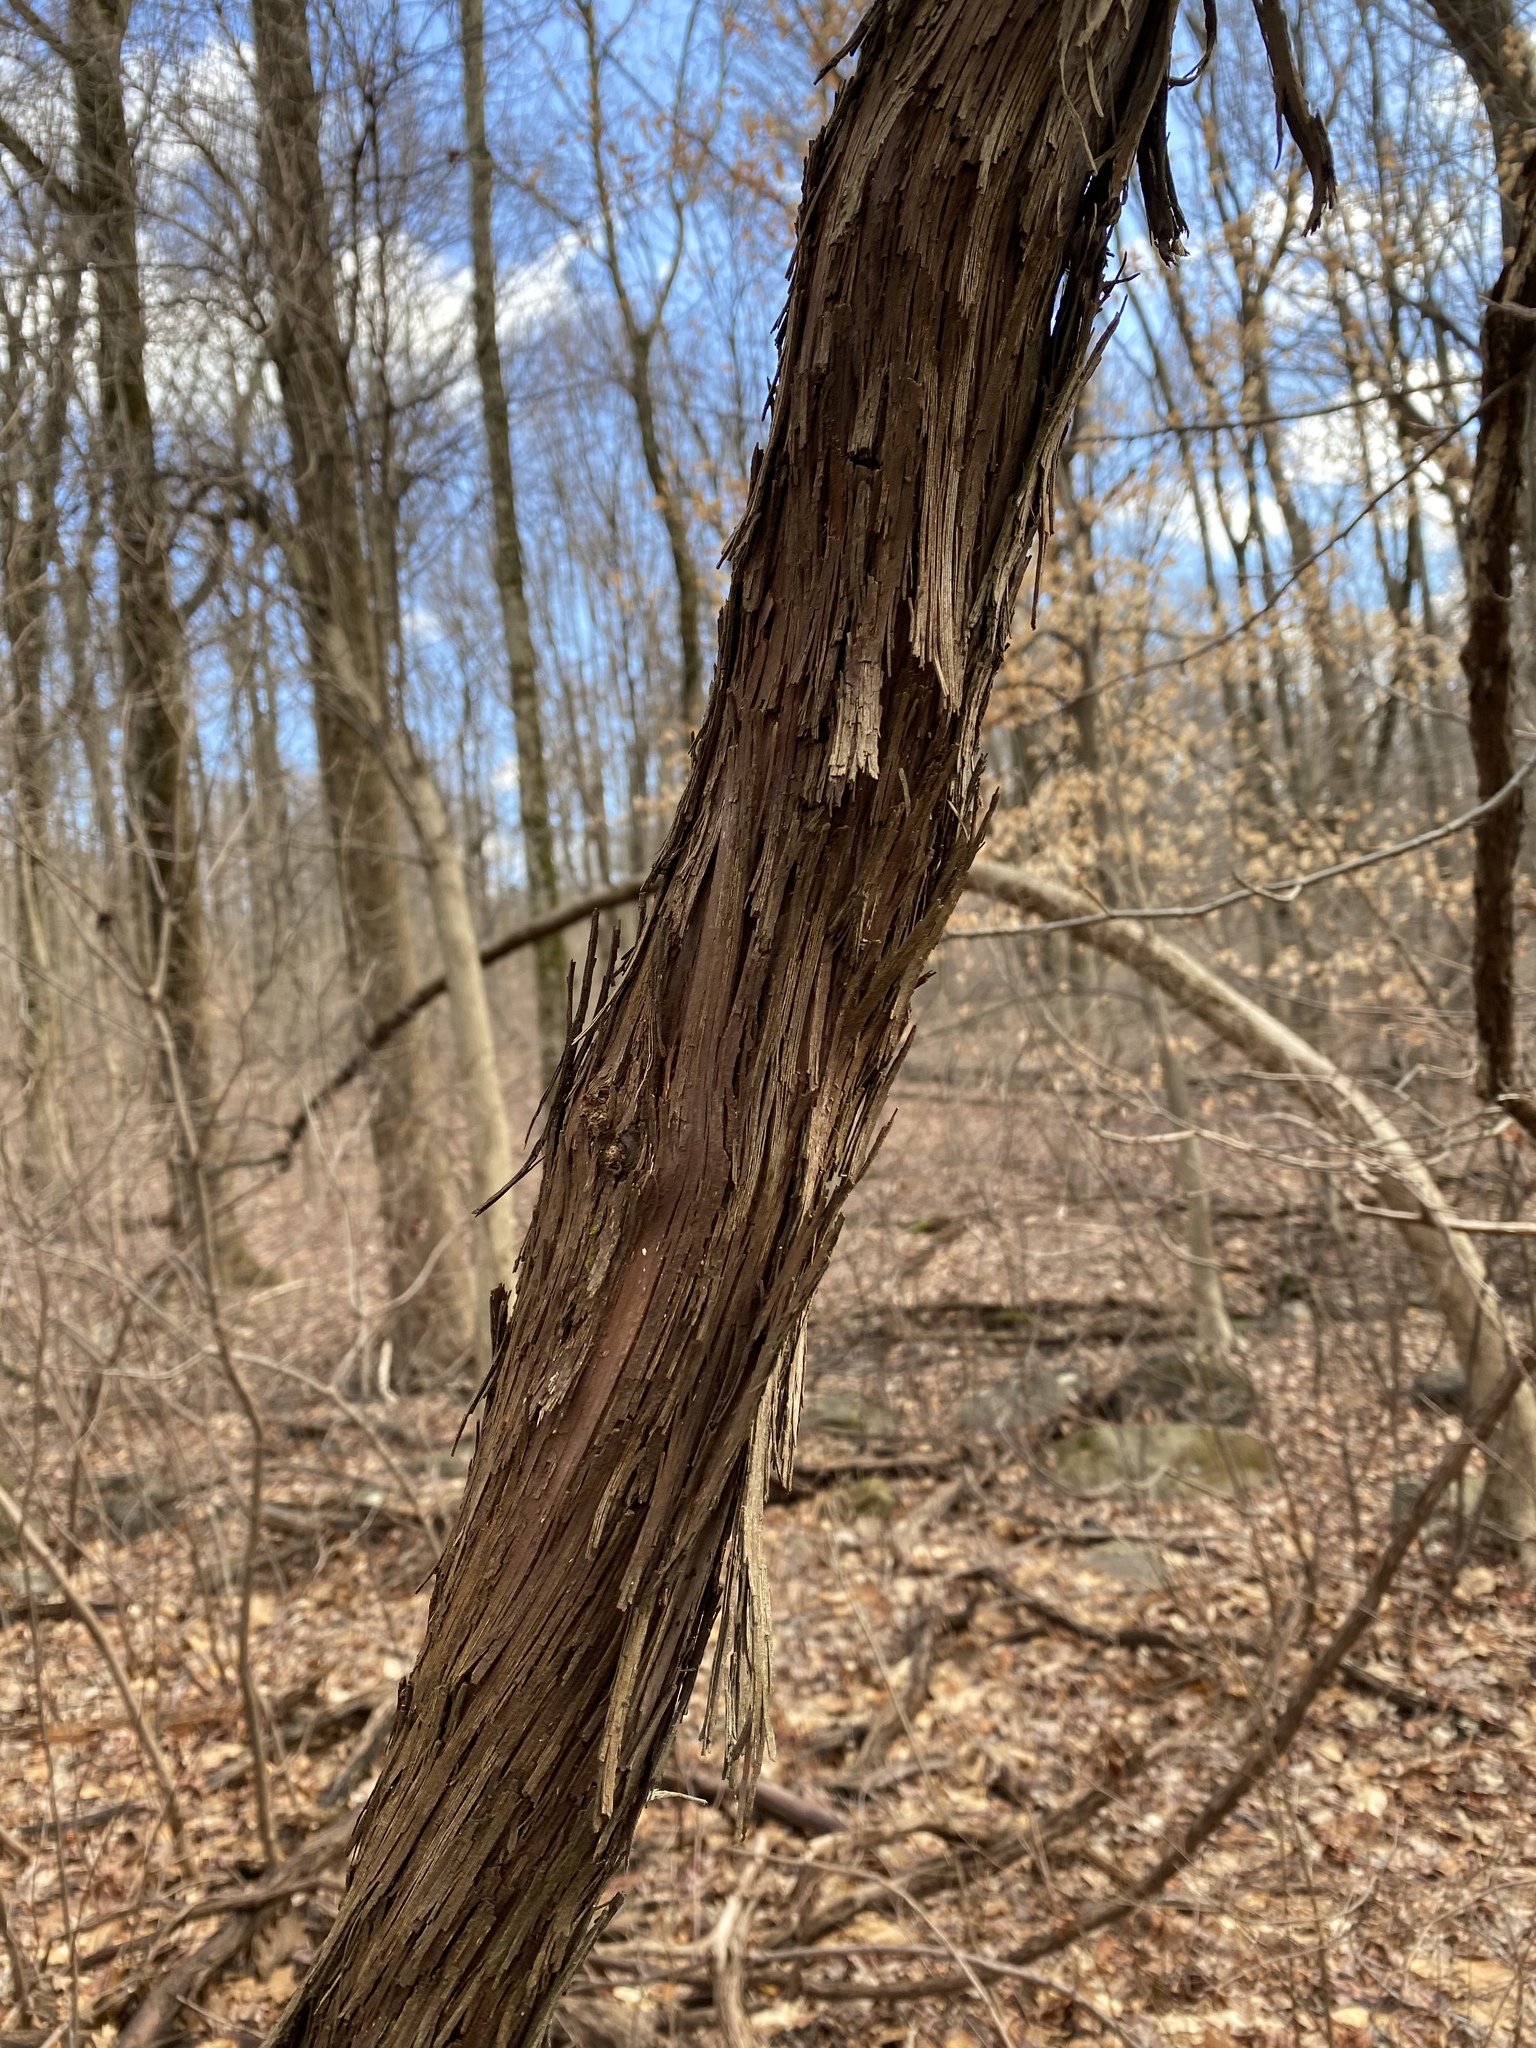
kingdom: Plantae
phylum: Tracheophyta
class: Magnoliopsida
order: Vitales
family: Vitaceae
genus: Vitis
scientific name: Vitis
